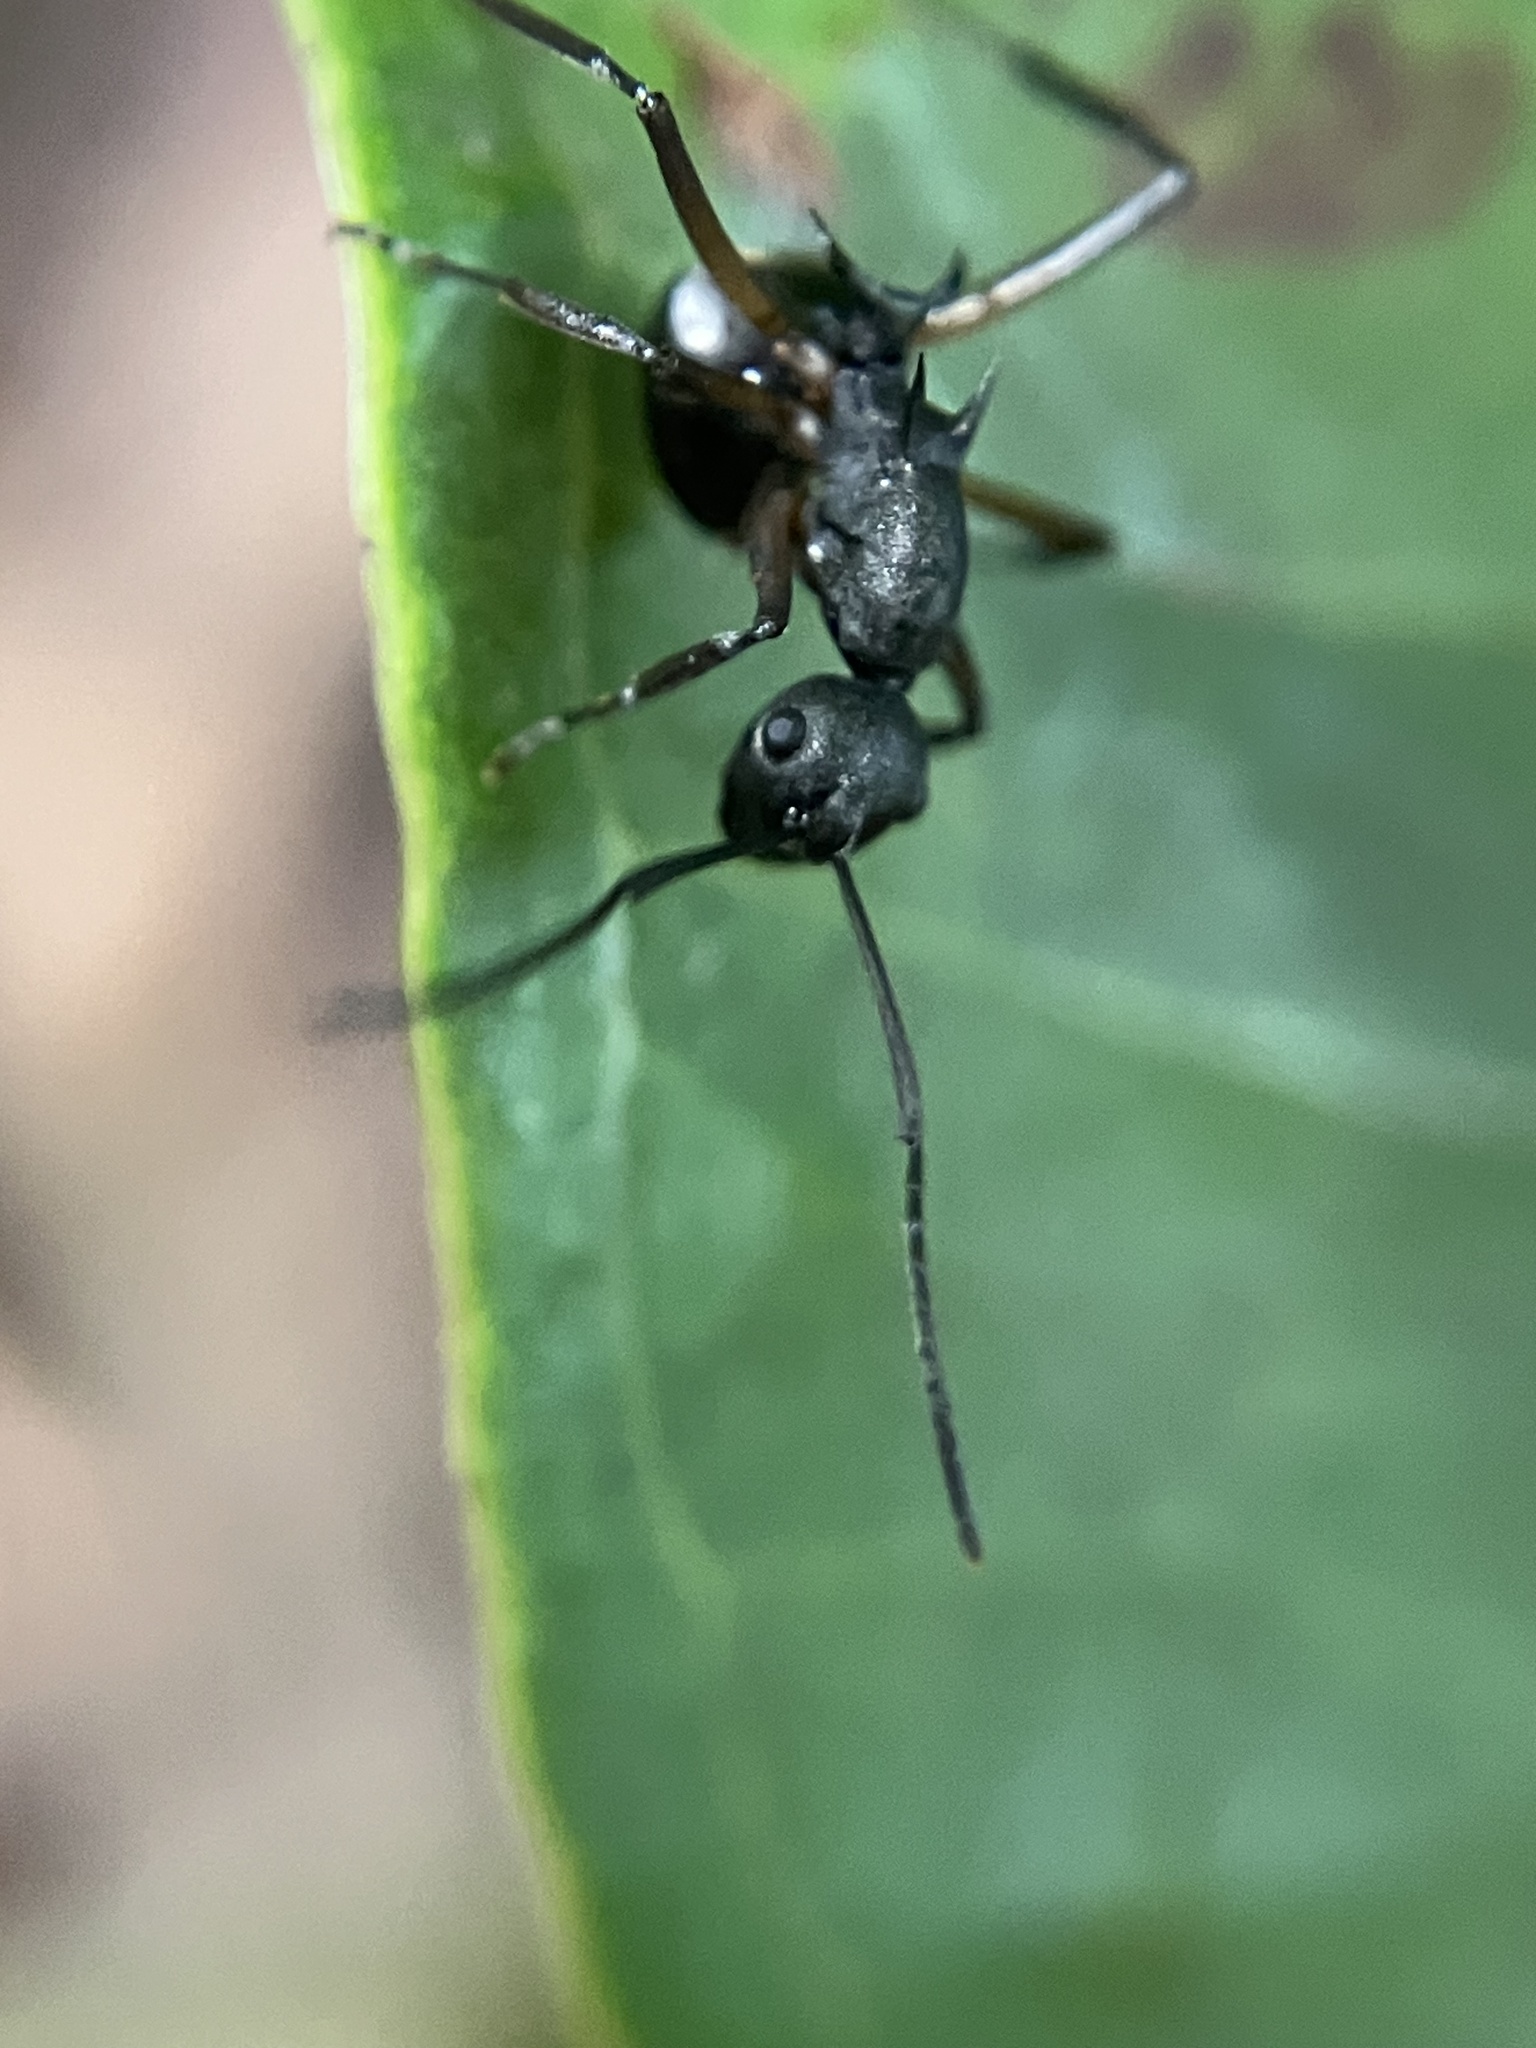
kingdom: Animalia
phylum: Arthropoda
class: Insecta
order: Hymenoptera
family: Formicidae
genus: Polyrhachis
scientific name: Polyrhachis hippomanes
